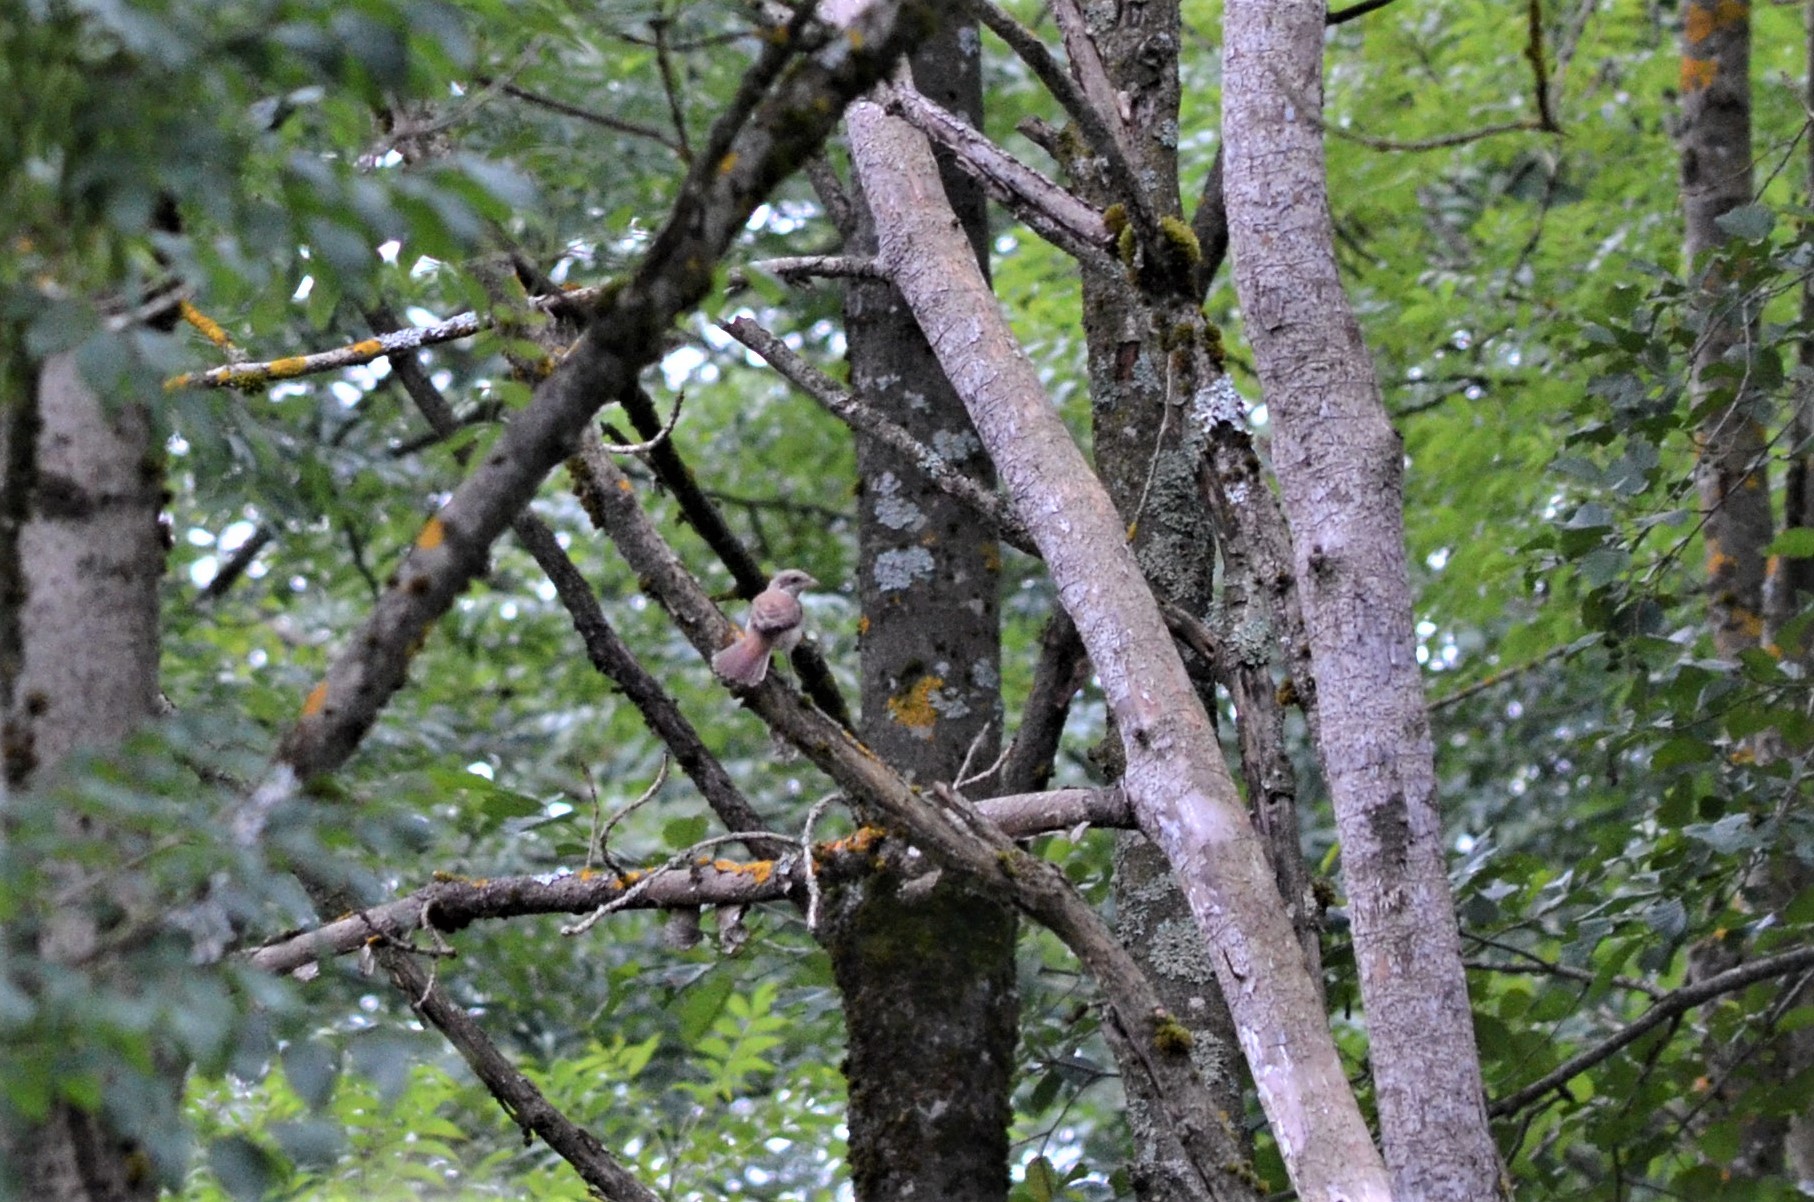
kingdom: Animalia
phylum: Chordata
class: Aves
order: Passeriformes
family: Laniidae
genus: Lanius
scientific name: Lanius collurio
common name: Red-backed shrike
